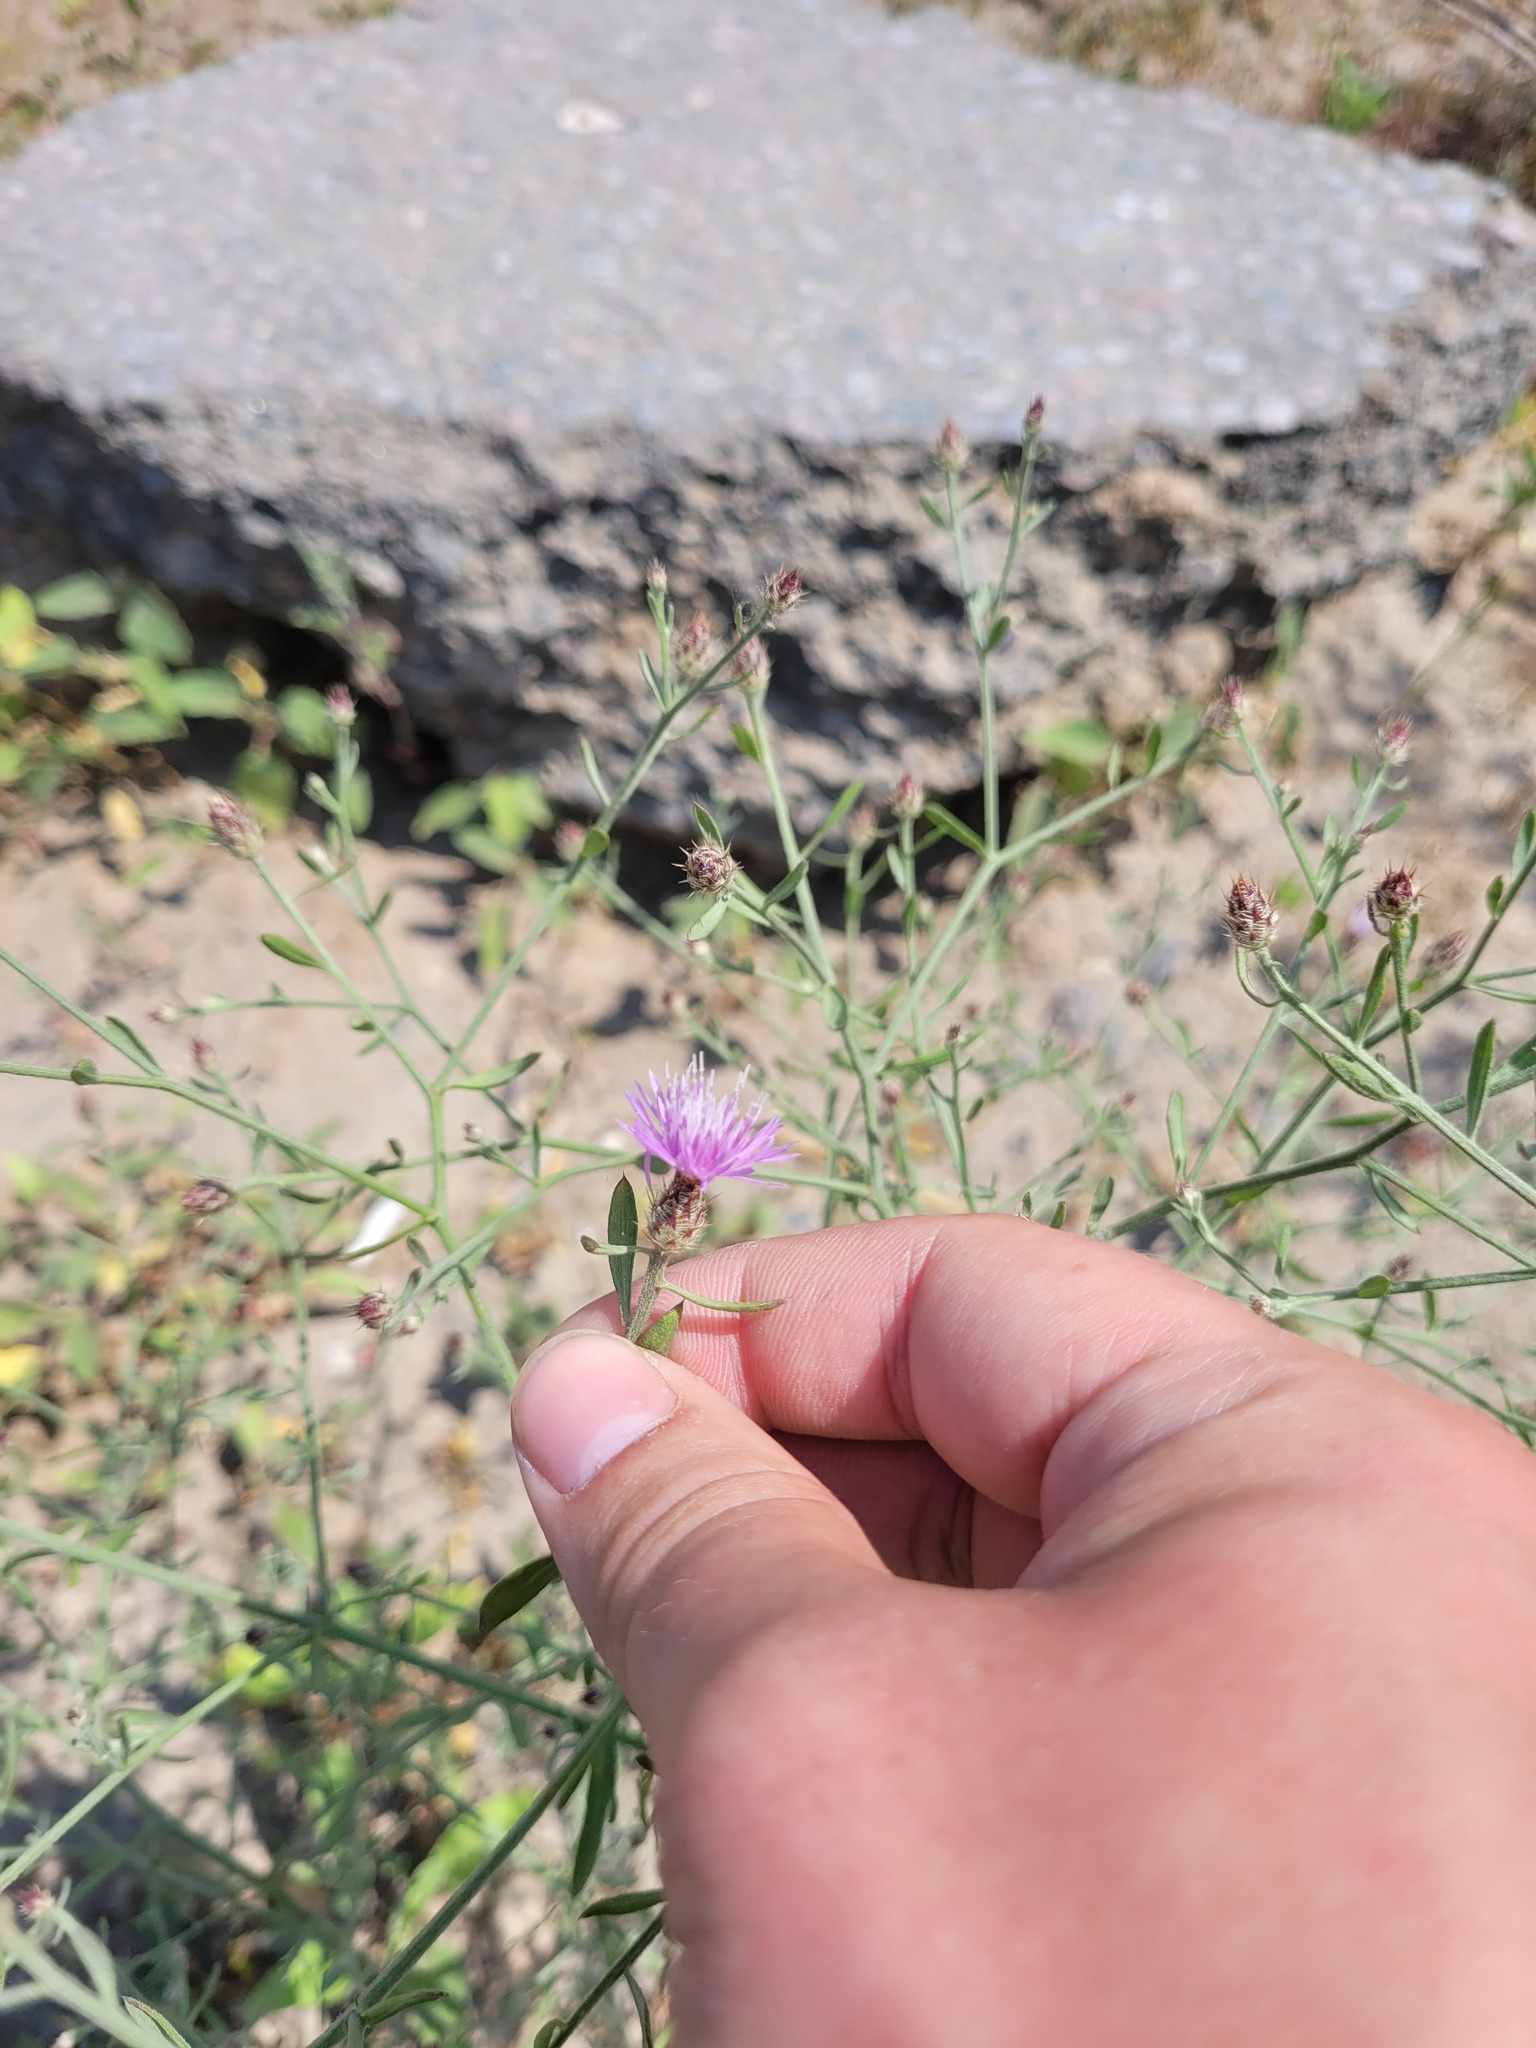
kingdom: Plantae
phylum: Tracheophyta
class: Magnoliopsida
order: Asterales
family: Asteraceae
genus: Centaurea
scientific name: Centaurea diffusa
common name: Diffuse knapweed
